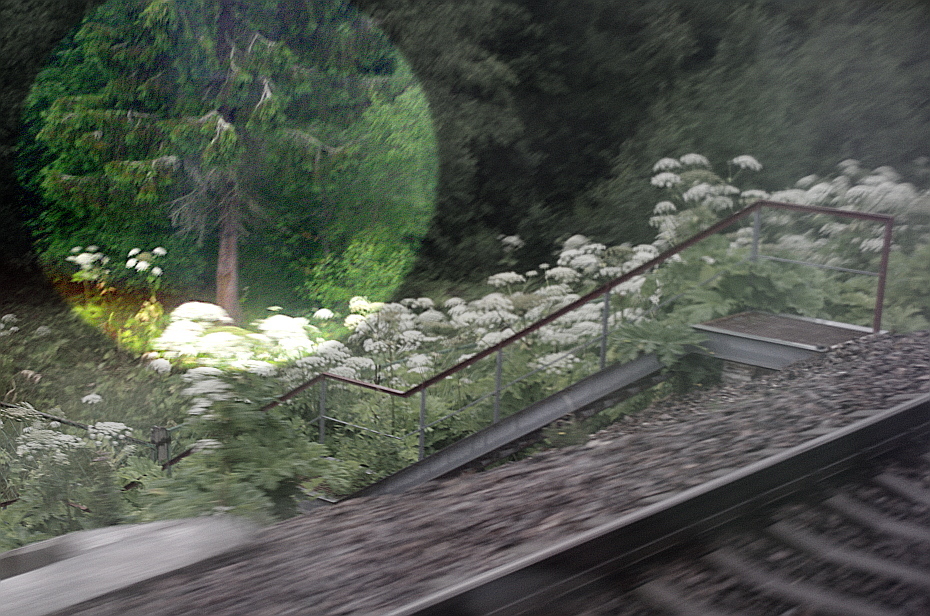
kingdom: Plantae
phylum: Tracheophyta
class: Pinopsida
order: Pinales
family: Pinaceae
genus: Picea
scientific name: Picea abies
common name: Norway spruce
